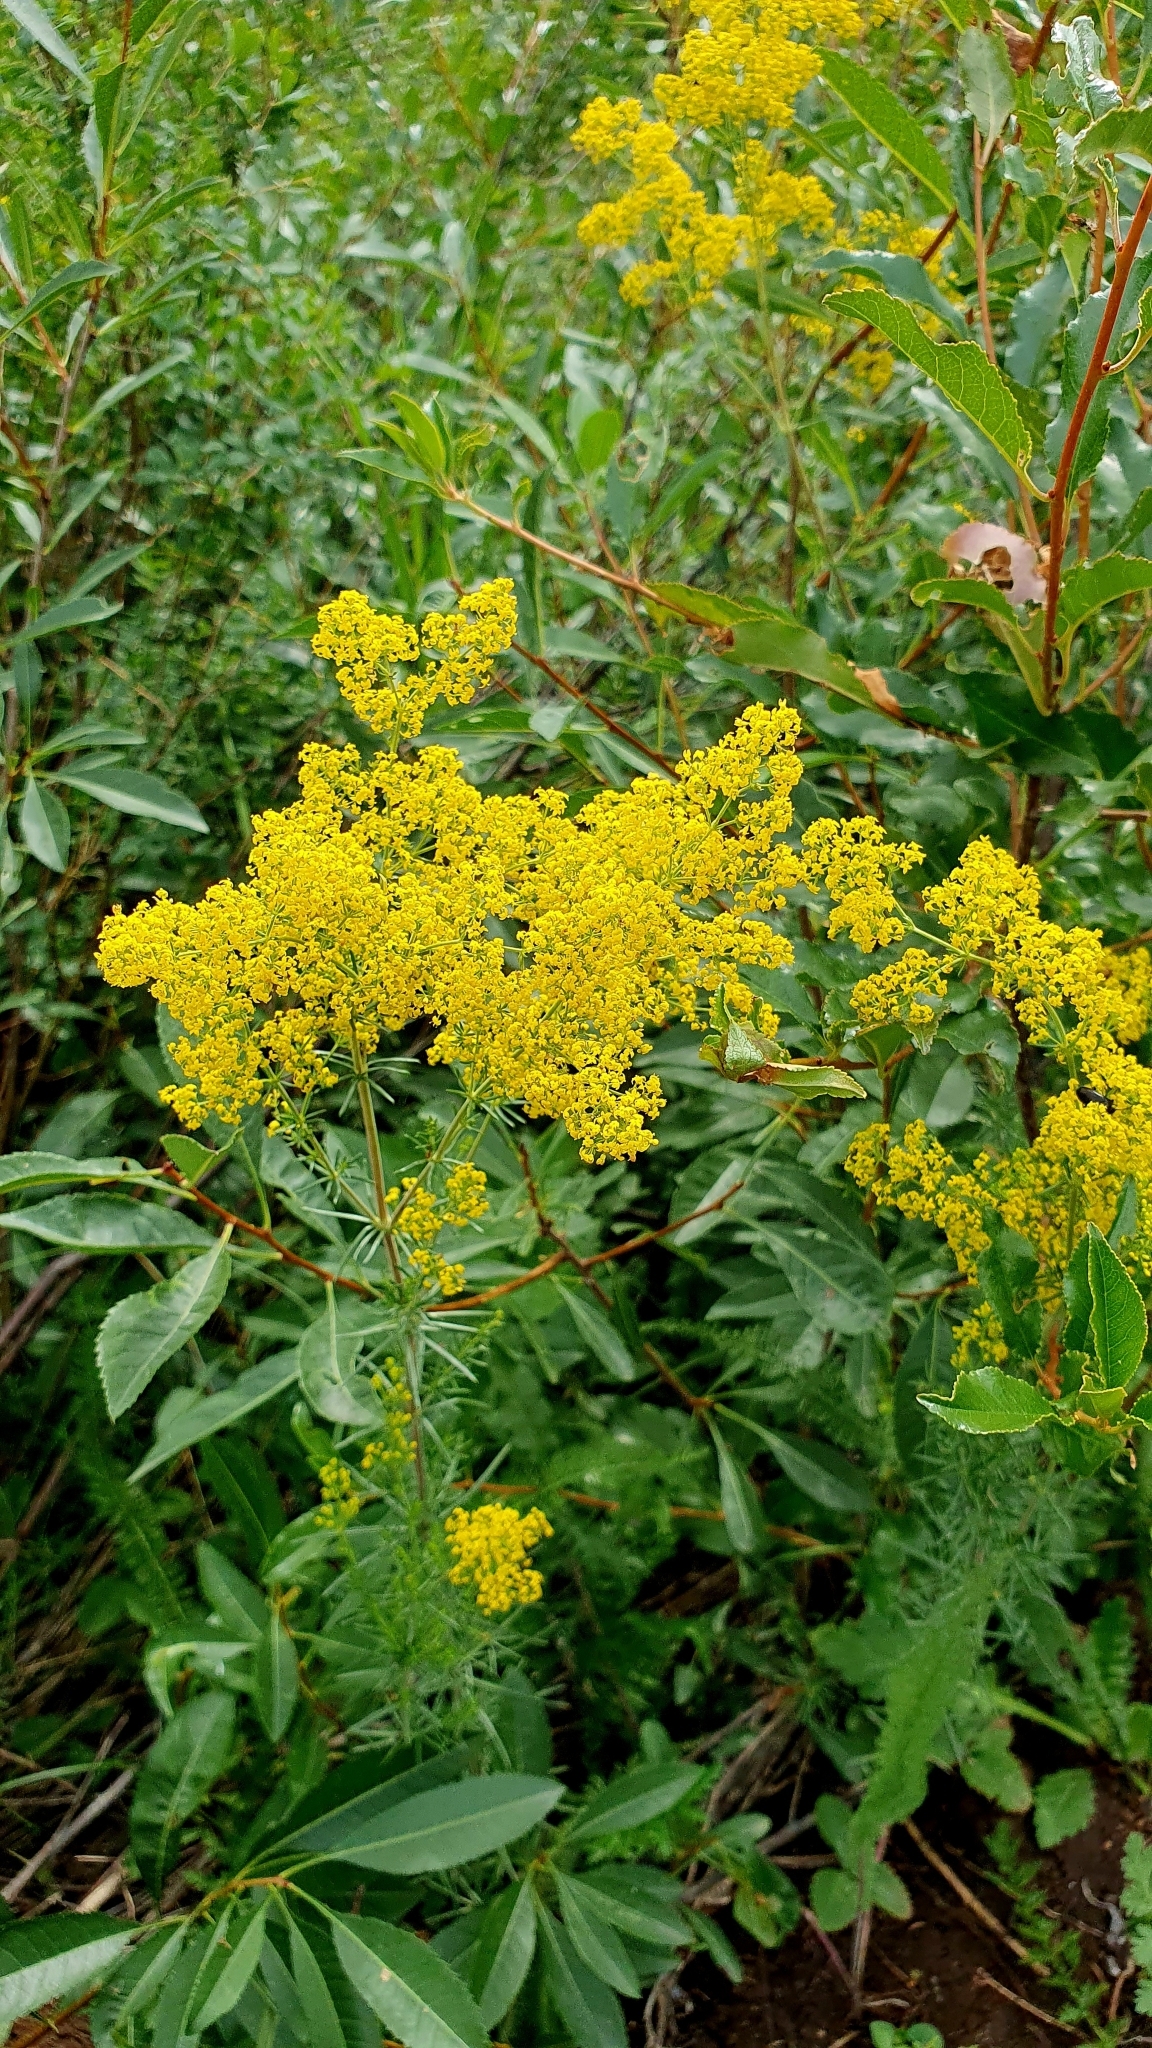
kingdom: Plantae
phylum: Tracheophyta
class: Magnoliopsida
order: Gentianales
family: Rubiaceae
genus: Galium
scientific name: Galium verum
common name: Lady's bedstraw
